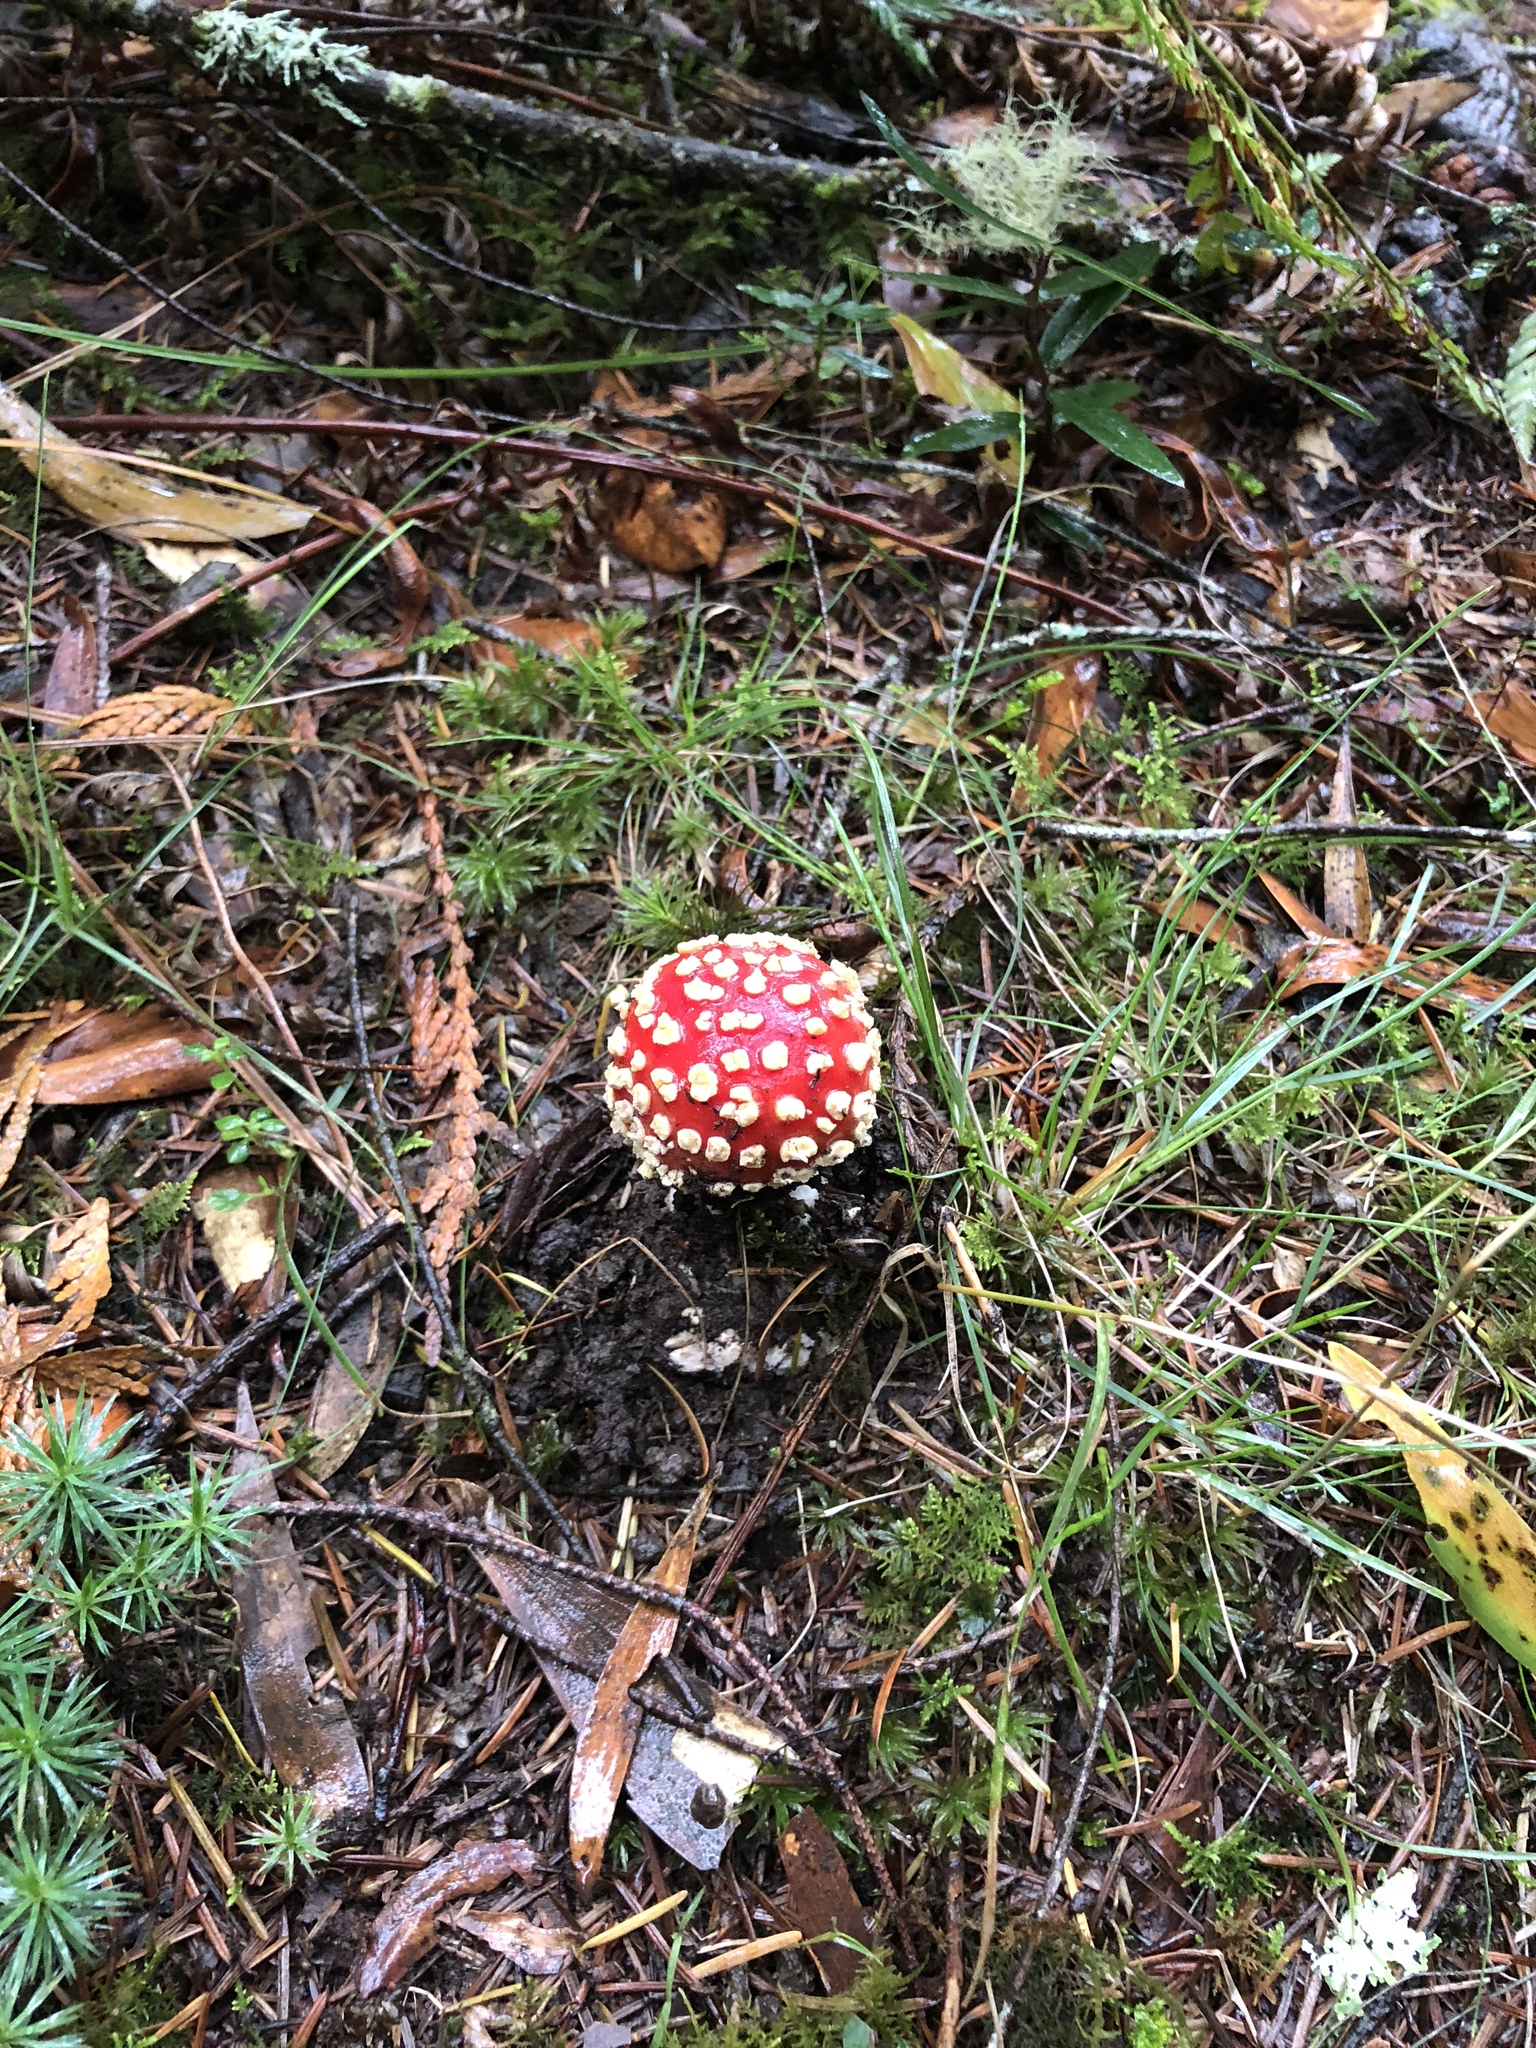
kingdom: Fungi
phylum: Basidiomycota
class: Agaricomycetes
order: Agaricales
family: Amanitaceae
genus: Amanita
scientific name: Amanita muscaria
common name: Fly agaric
